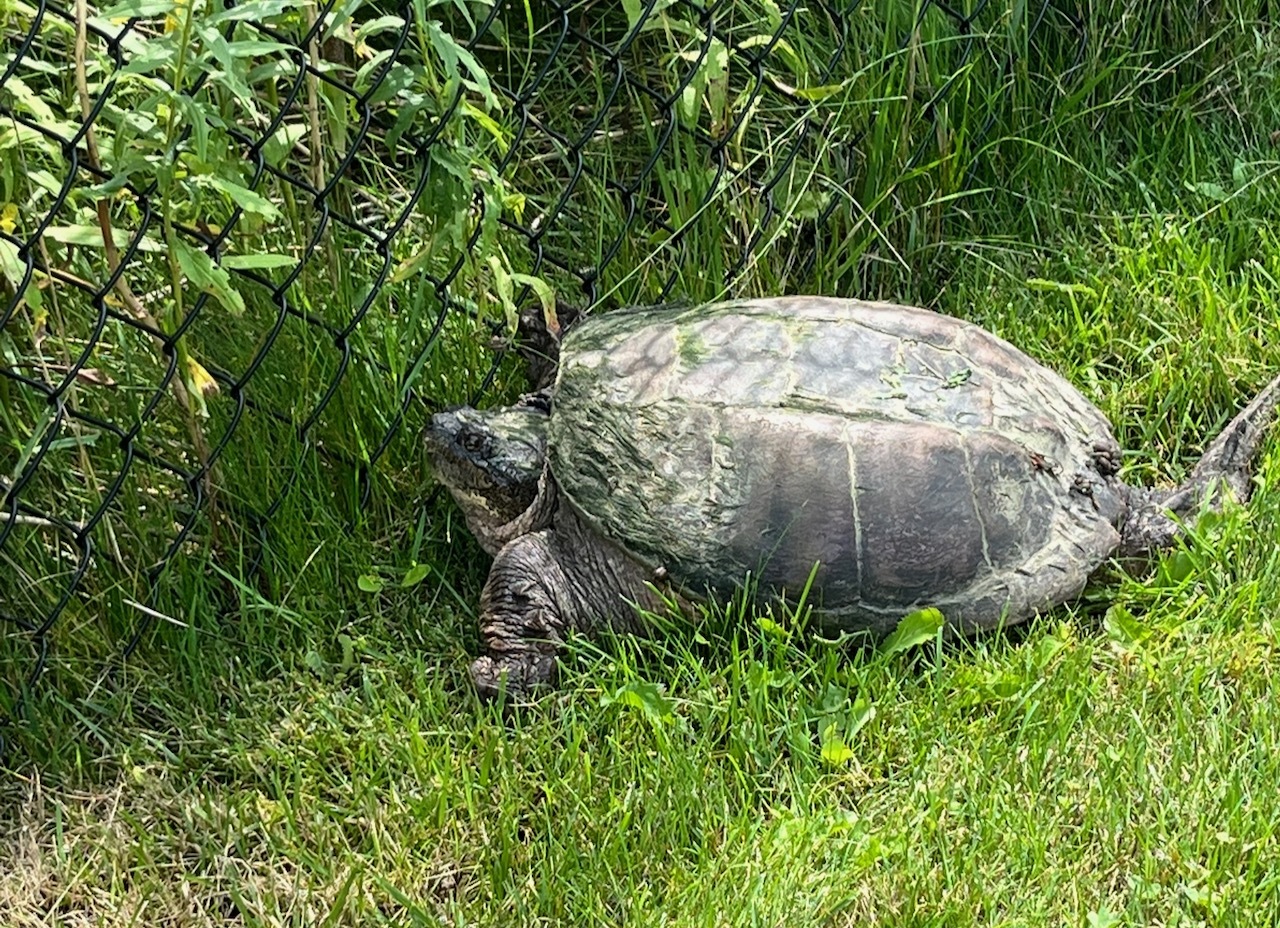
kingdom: Animalia
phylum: Chordata
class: Testudines
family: Chelydridae
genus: Chelydra
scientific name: Chelydra serpentina
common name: Common snapping turtle
